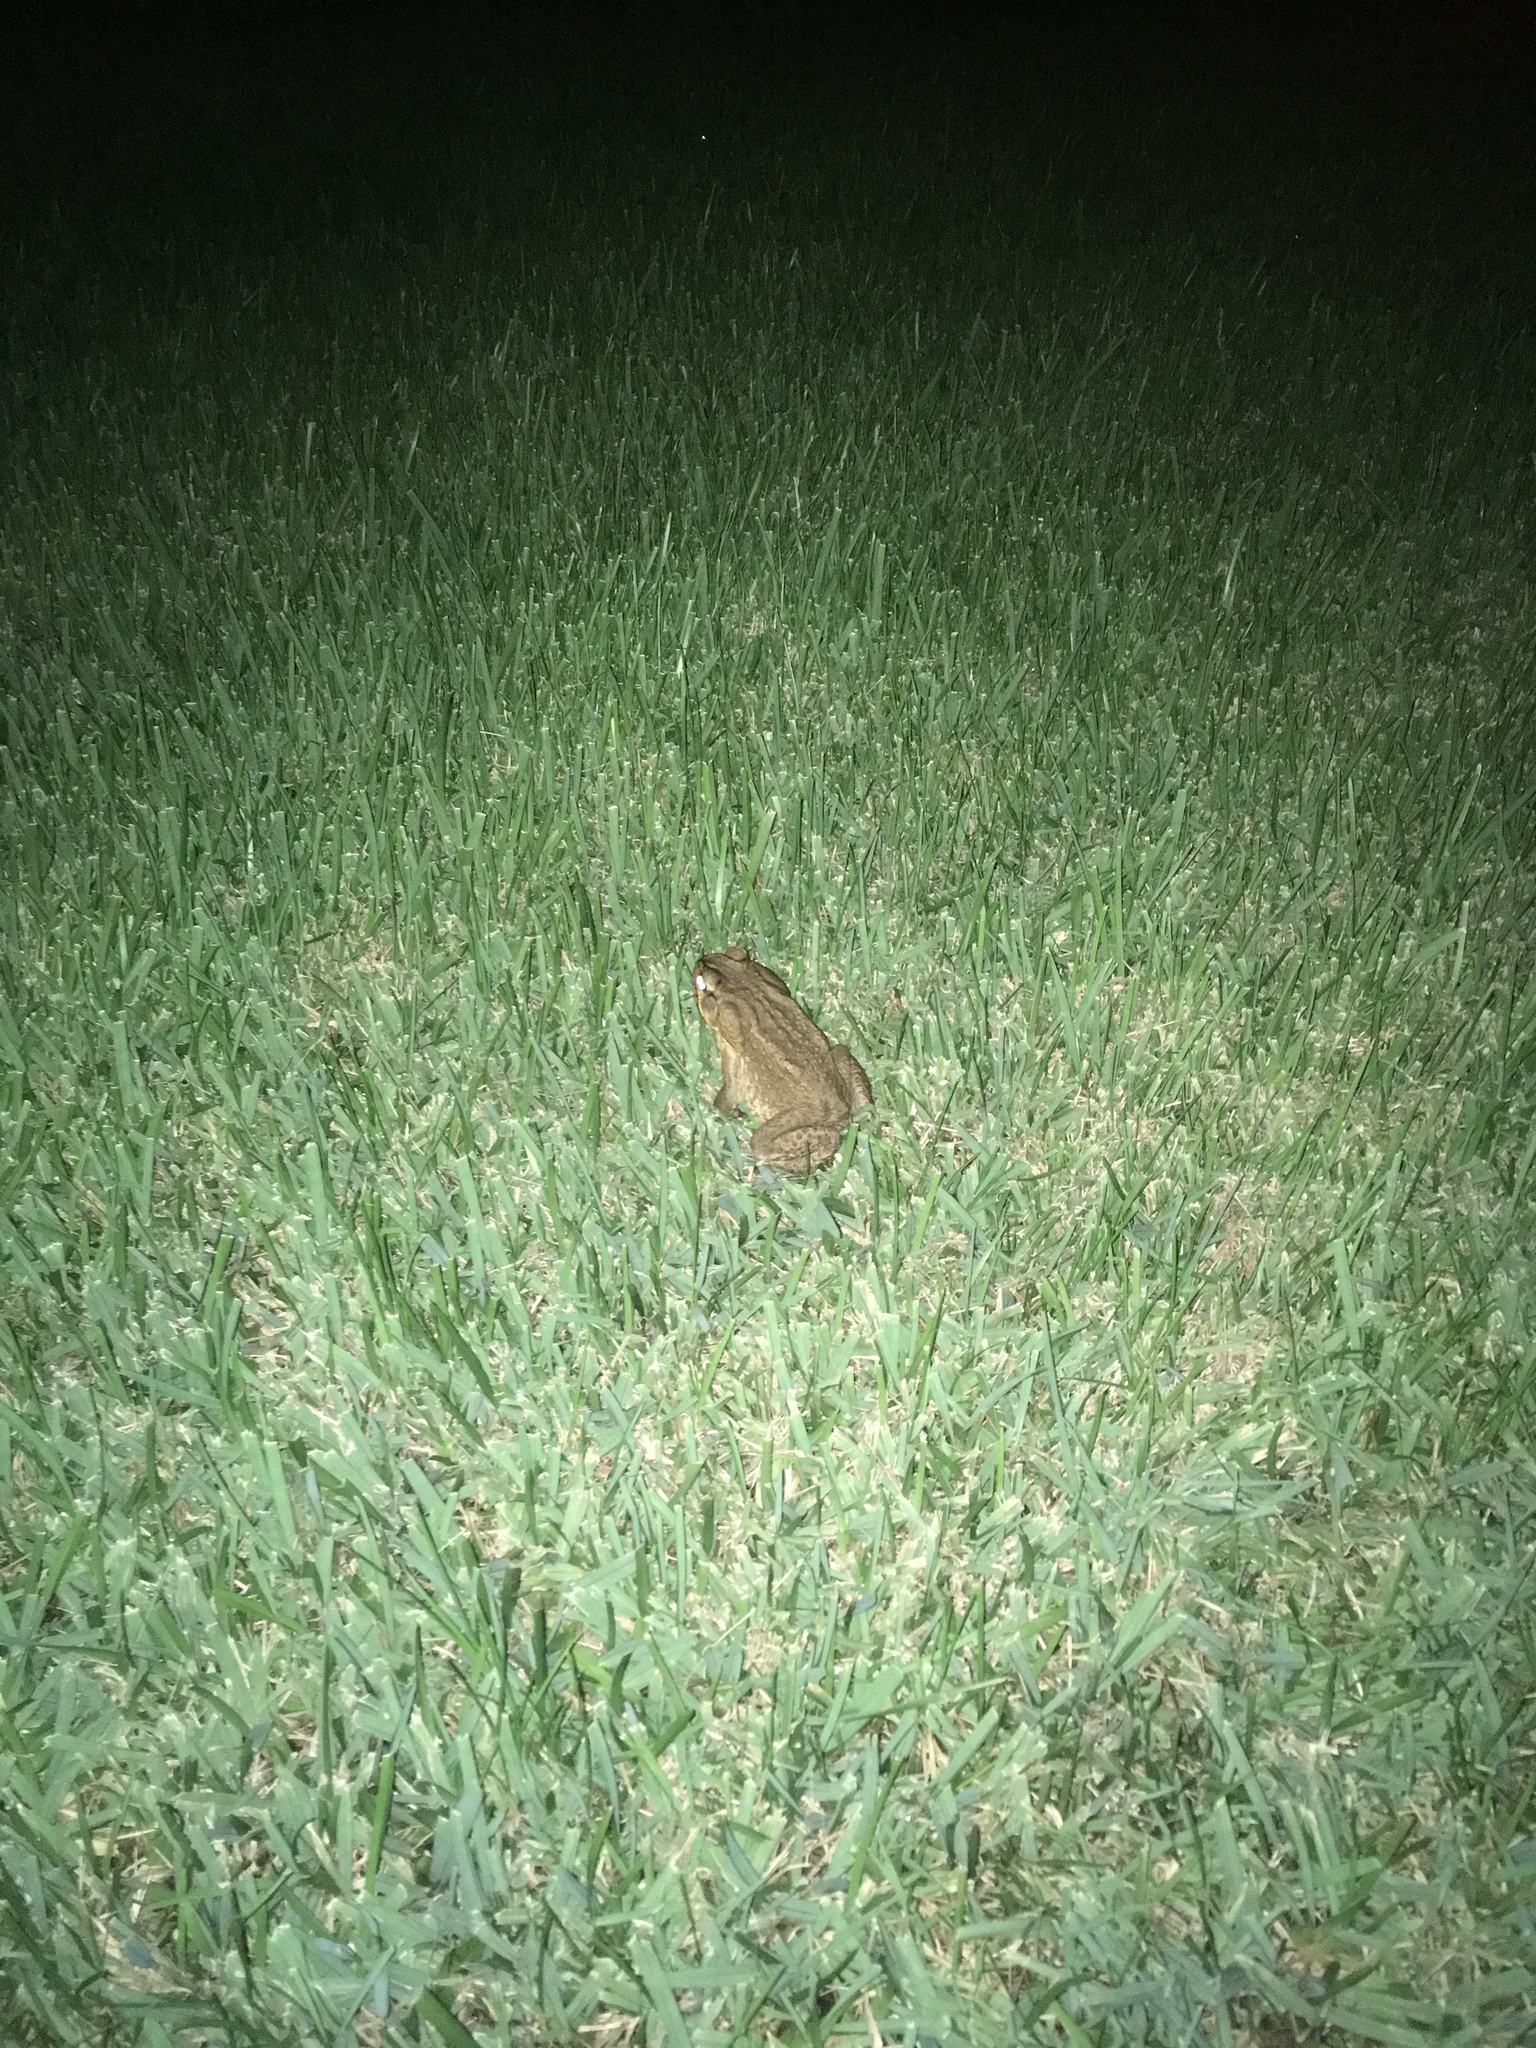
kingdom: Animalia
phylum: Chordata
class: Amphibia
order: Anura
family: Bufonidae
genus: Rhinella
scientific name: Rhinella marina
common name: Cane toad
